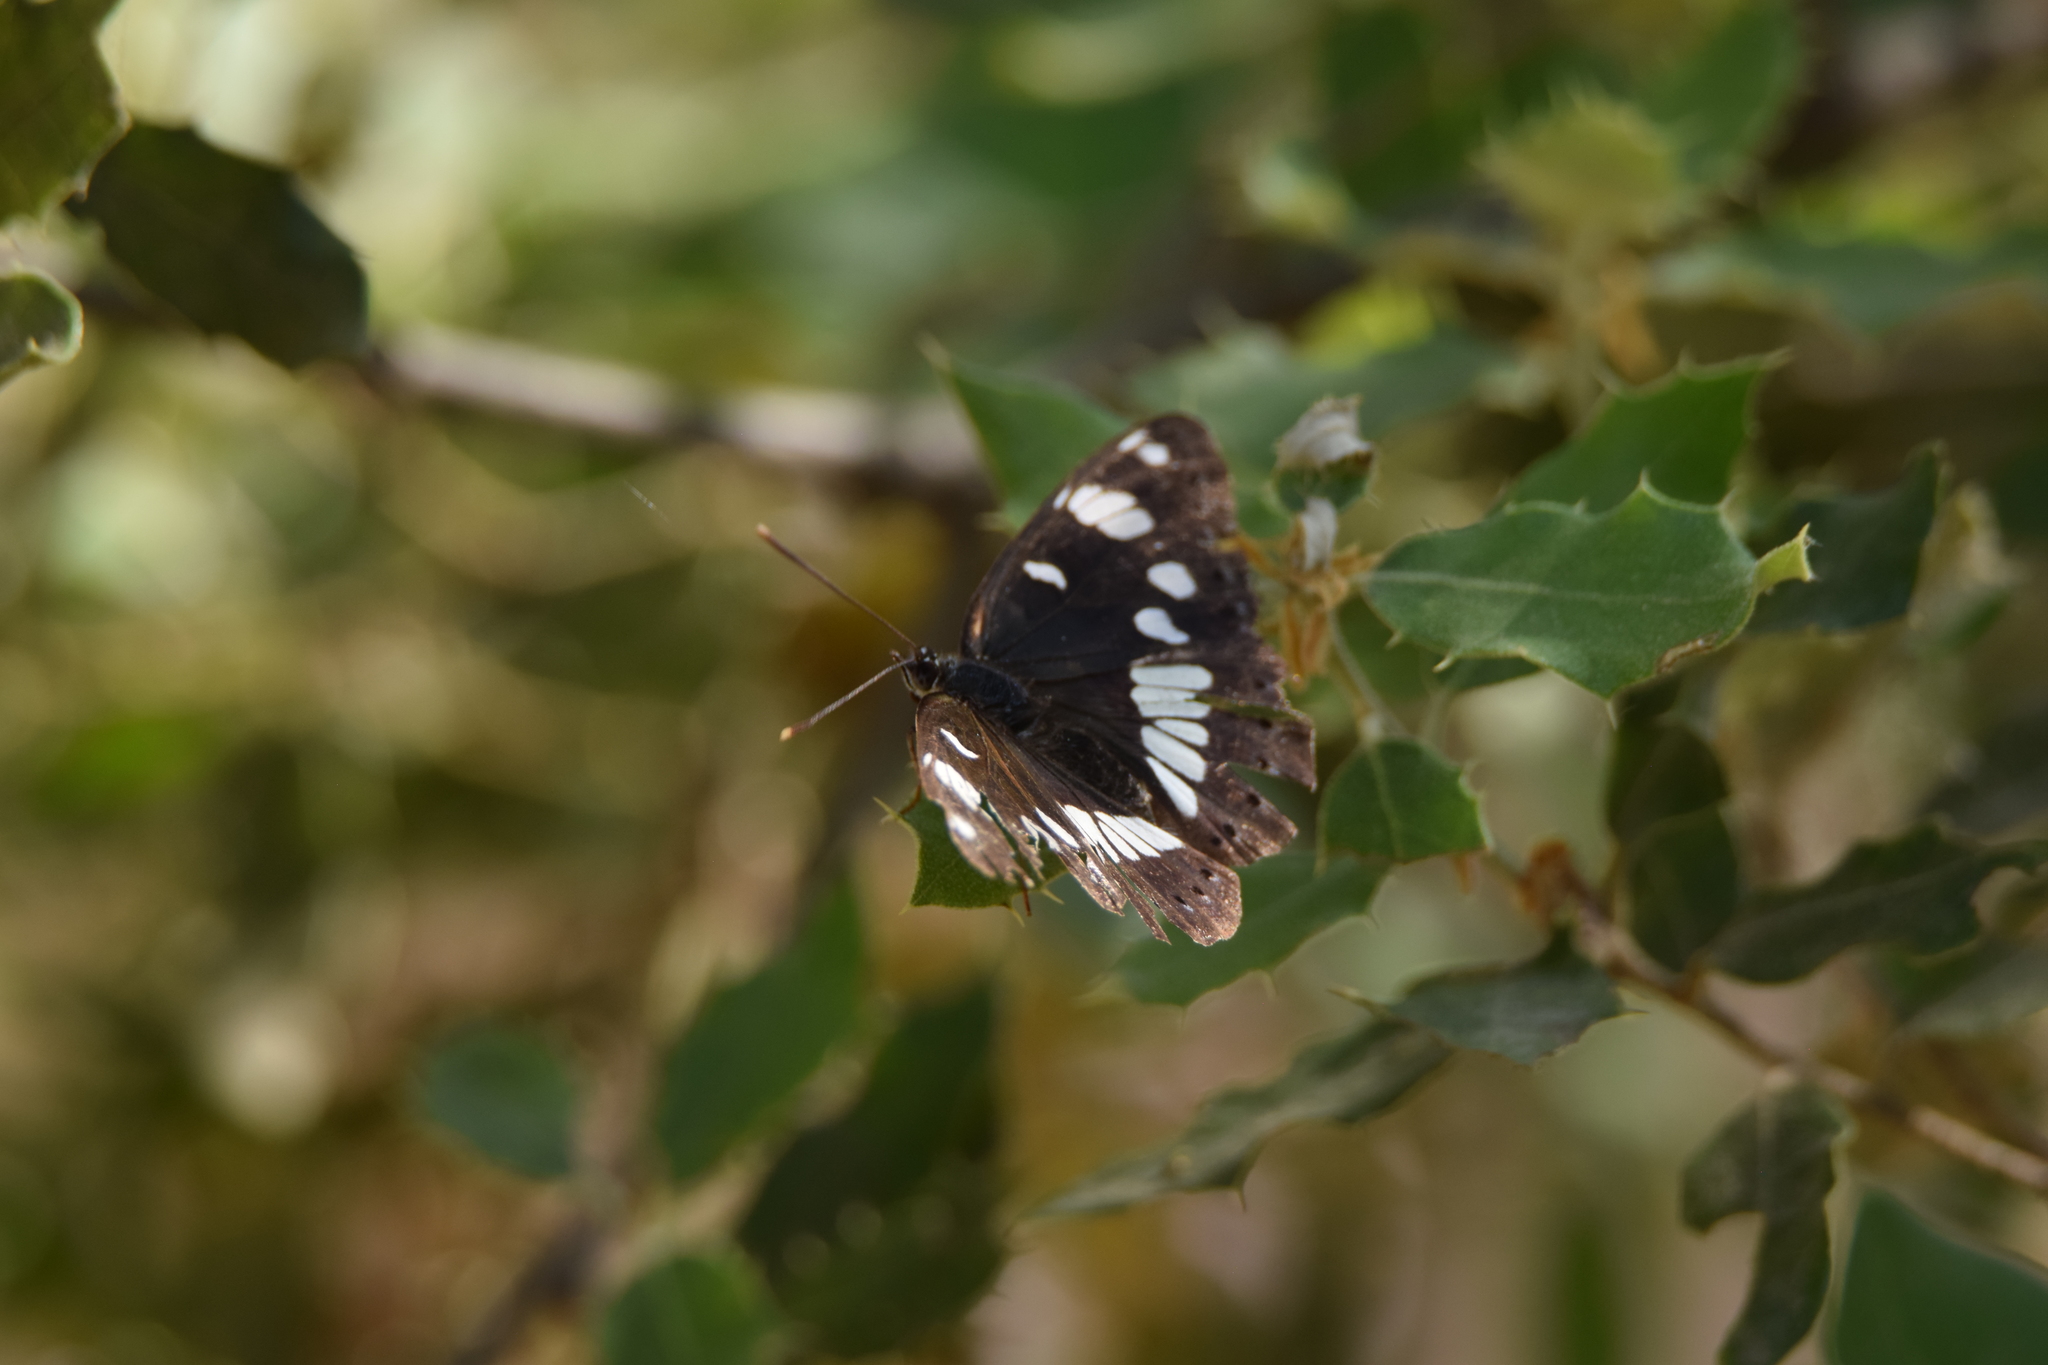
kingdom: Animalia
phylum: Arthropoda
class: Insecta
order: Lepidoptera
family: Nymphalidae
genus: Limenitis
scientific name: Limenitis reducta
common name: Southern white admiral
